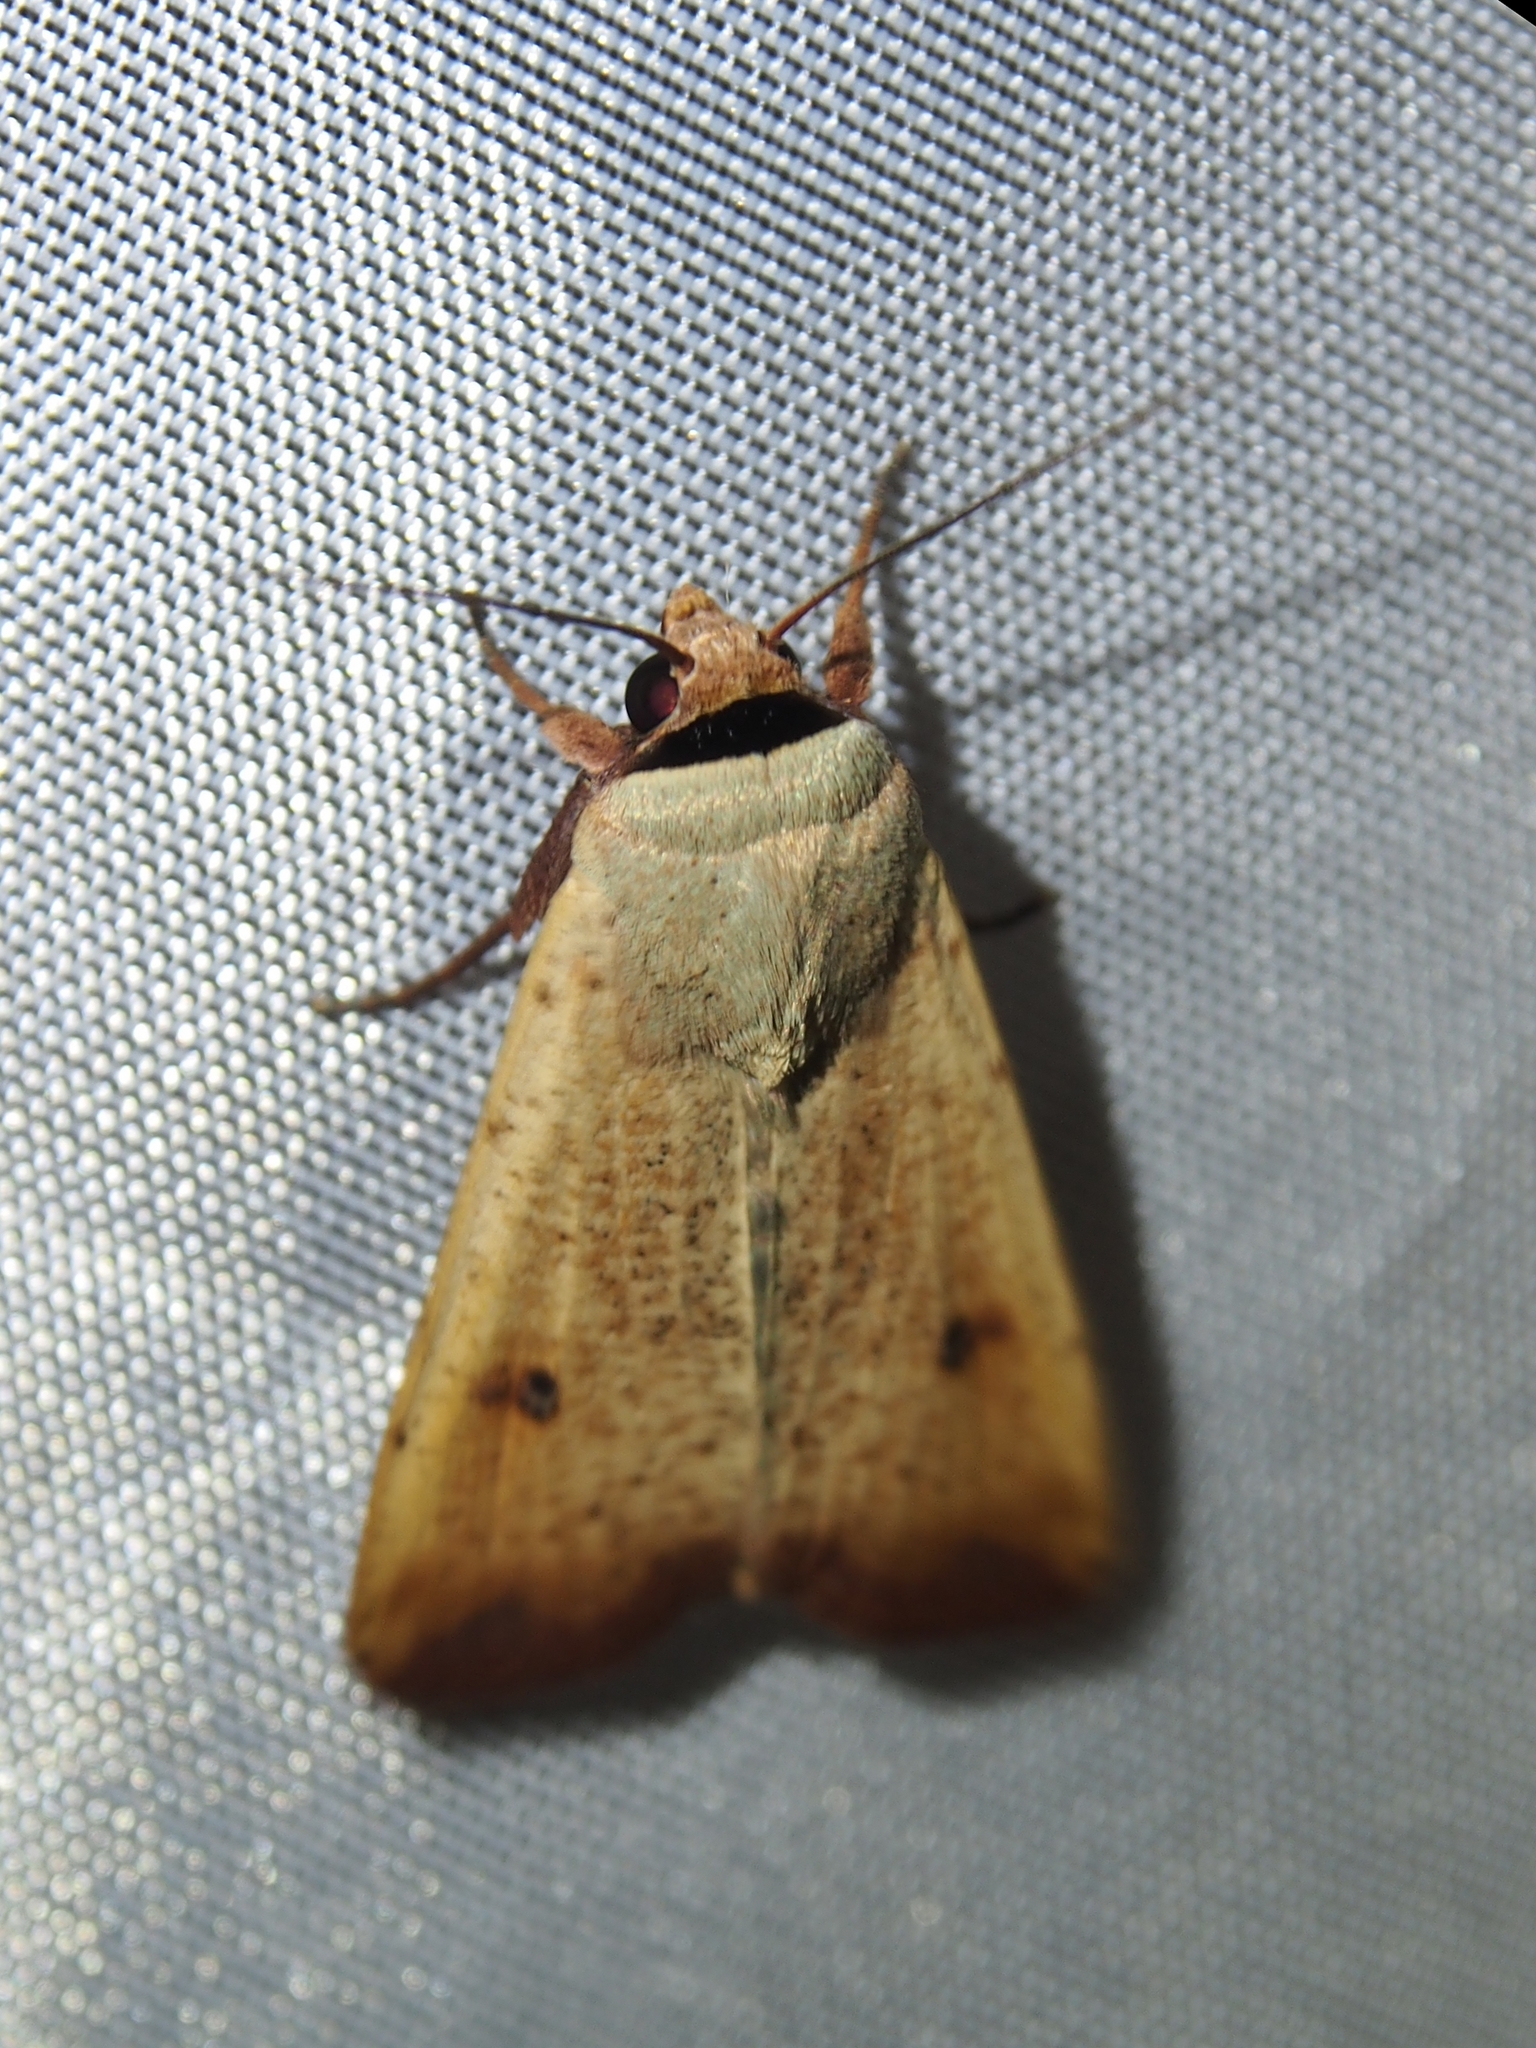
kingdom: Animalia
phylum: Arthropoda
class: Insecta
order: Lepidoptera
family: Noctuidae
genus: Anicla
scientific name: Anicla ignicans
